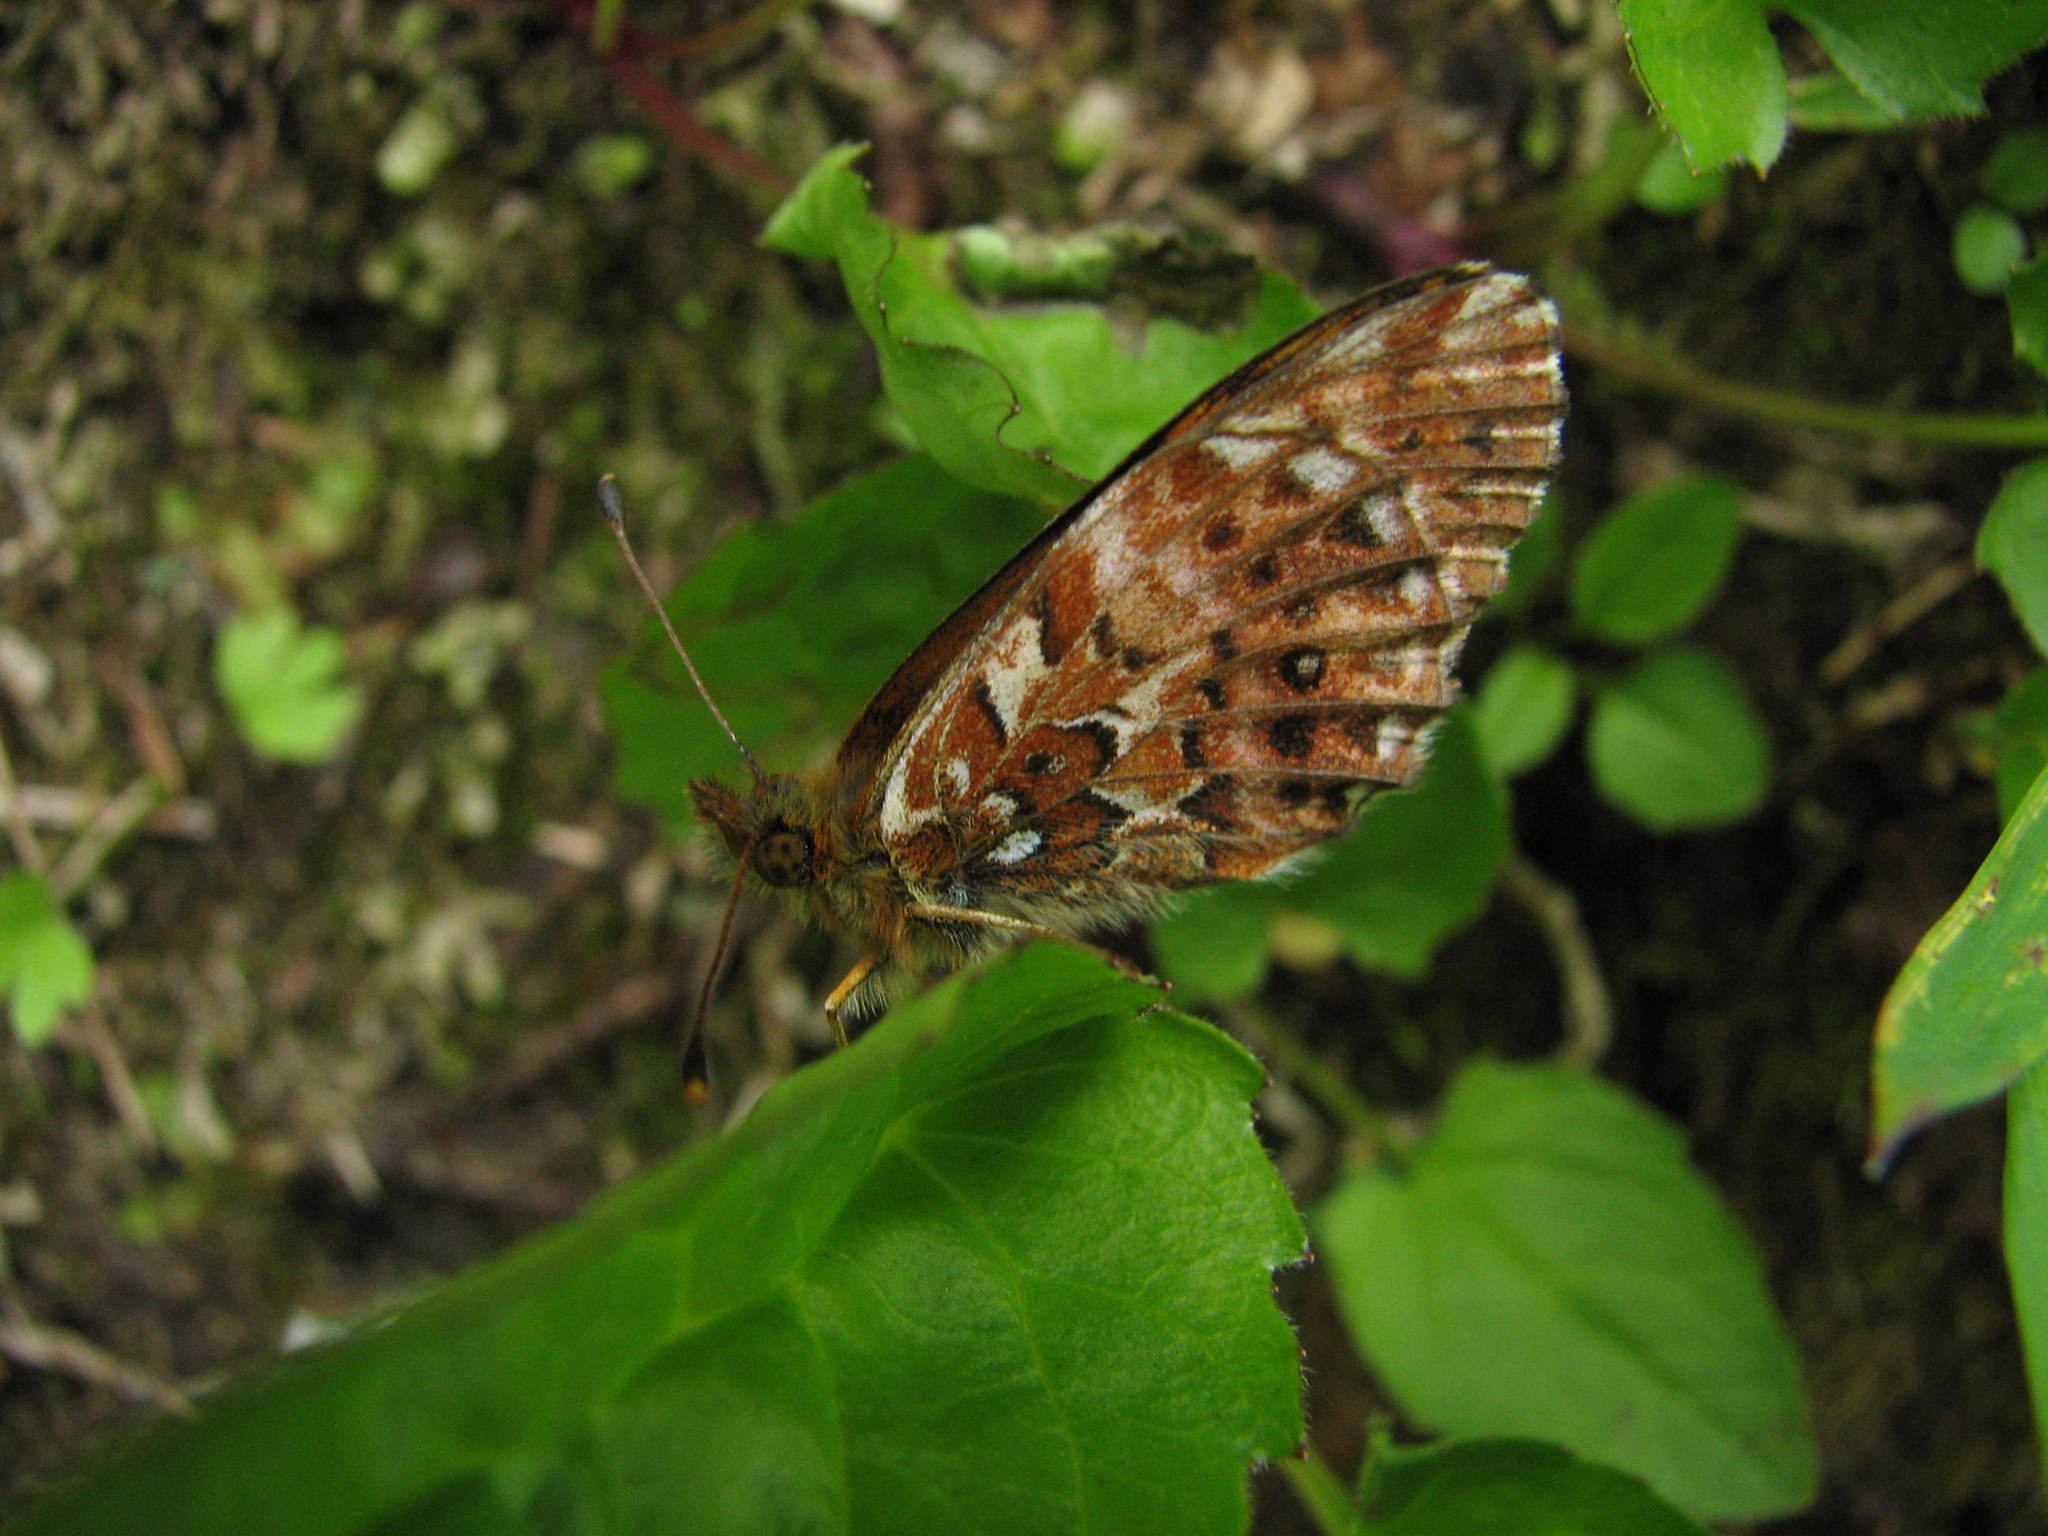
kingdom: Animalia
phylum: Arthropoda
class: Insecta
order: Lepidoptera
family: Nymphalidae
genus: Boloria
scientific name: Boloria chariclea
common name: Arctic fritillary
